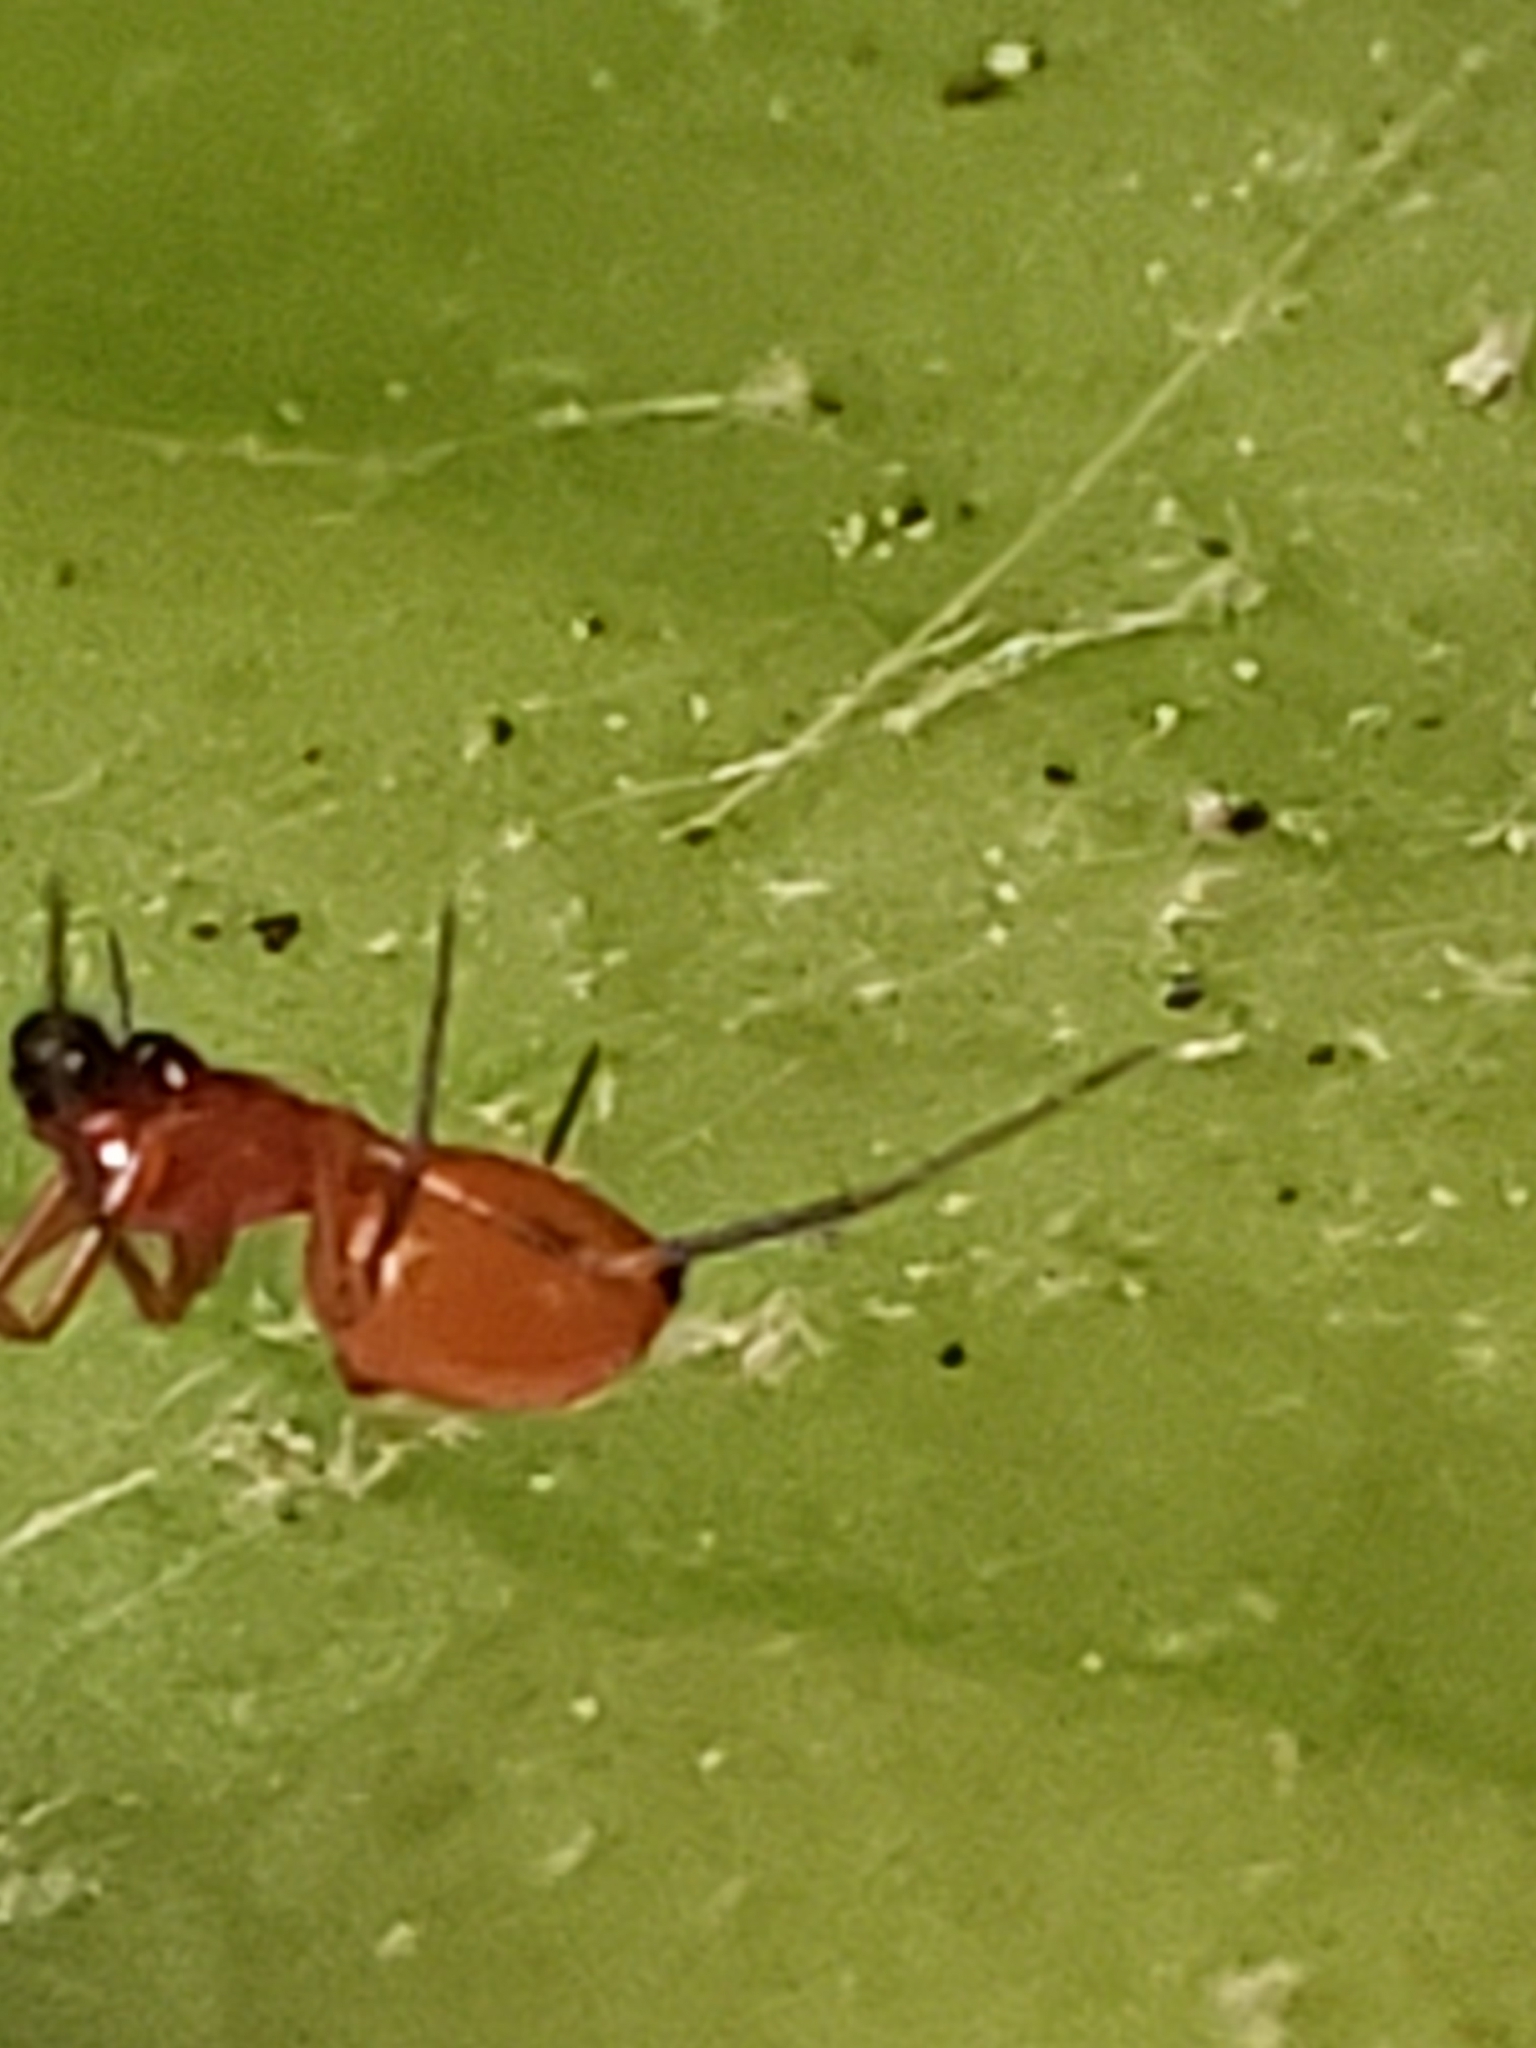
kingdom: Animalia
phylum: Arthropoda
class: Arachnida
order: Araneae
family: Linyphiidae
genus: Florinda
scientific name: Florinda coccinea
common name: Black-tailed red sheetweaver
